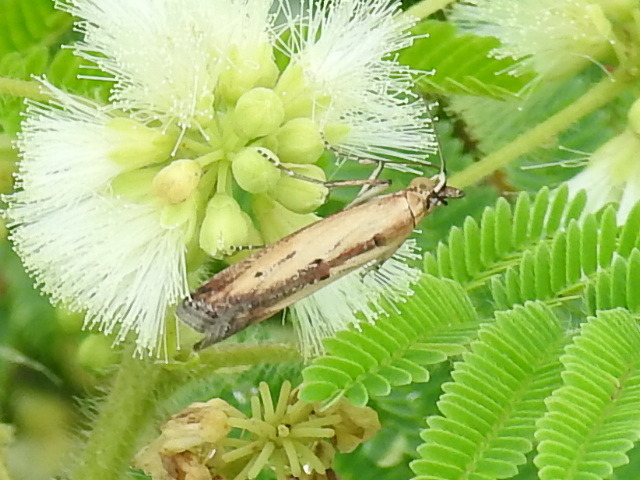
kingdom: Animalia
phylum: Arthropoda
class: Insecta
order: Lepidoptera
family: Pyralidae
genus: Elasmopalpus
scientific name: Elasmopalpus lignosella
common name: Lesser cornstalk borer
